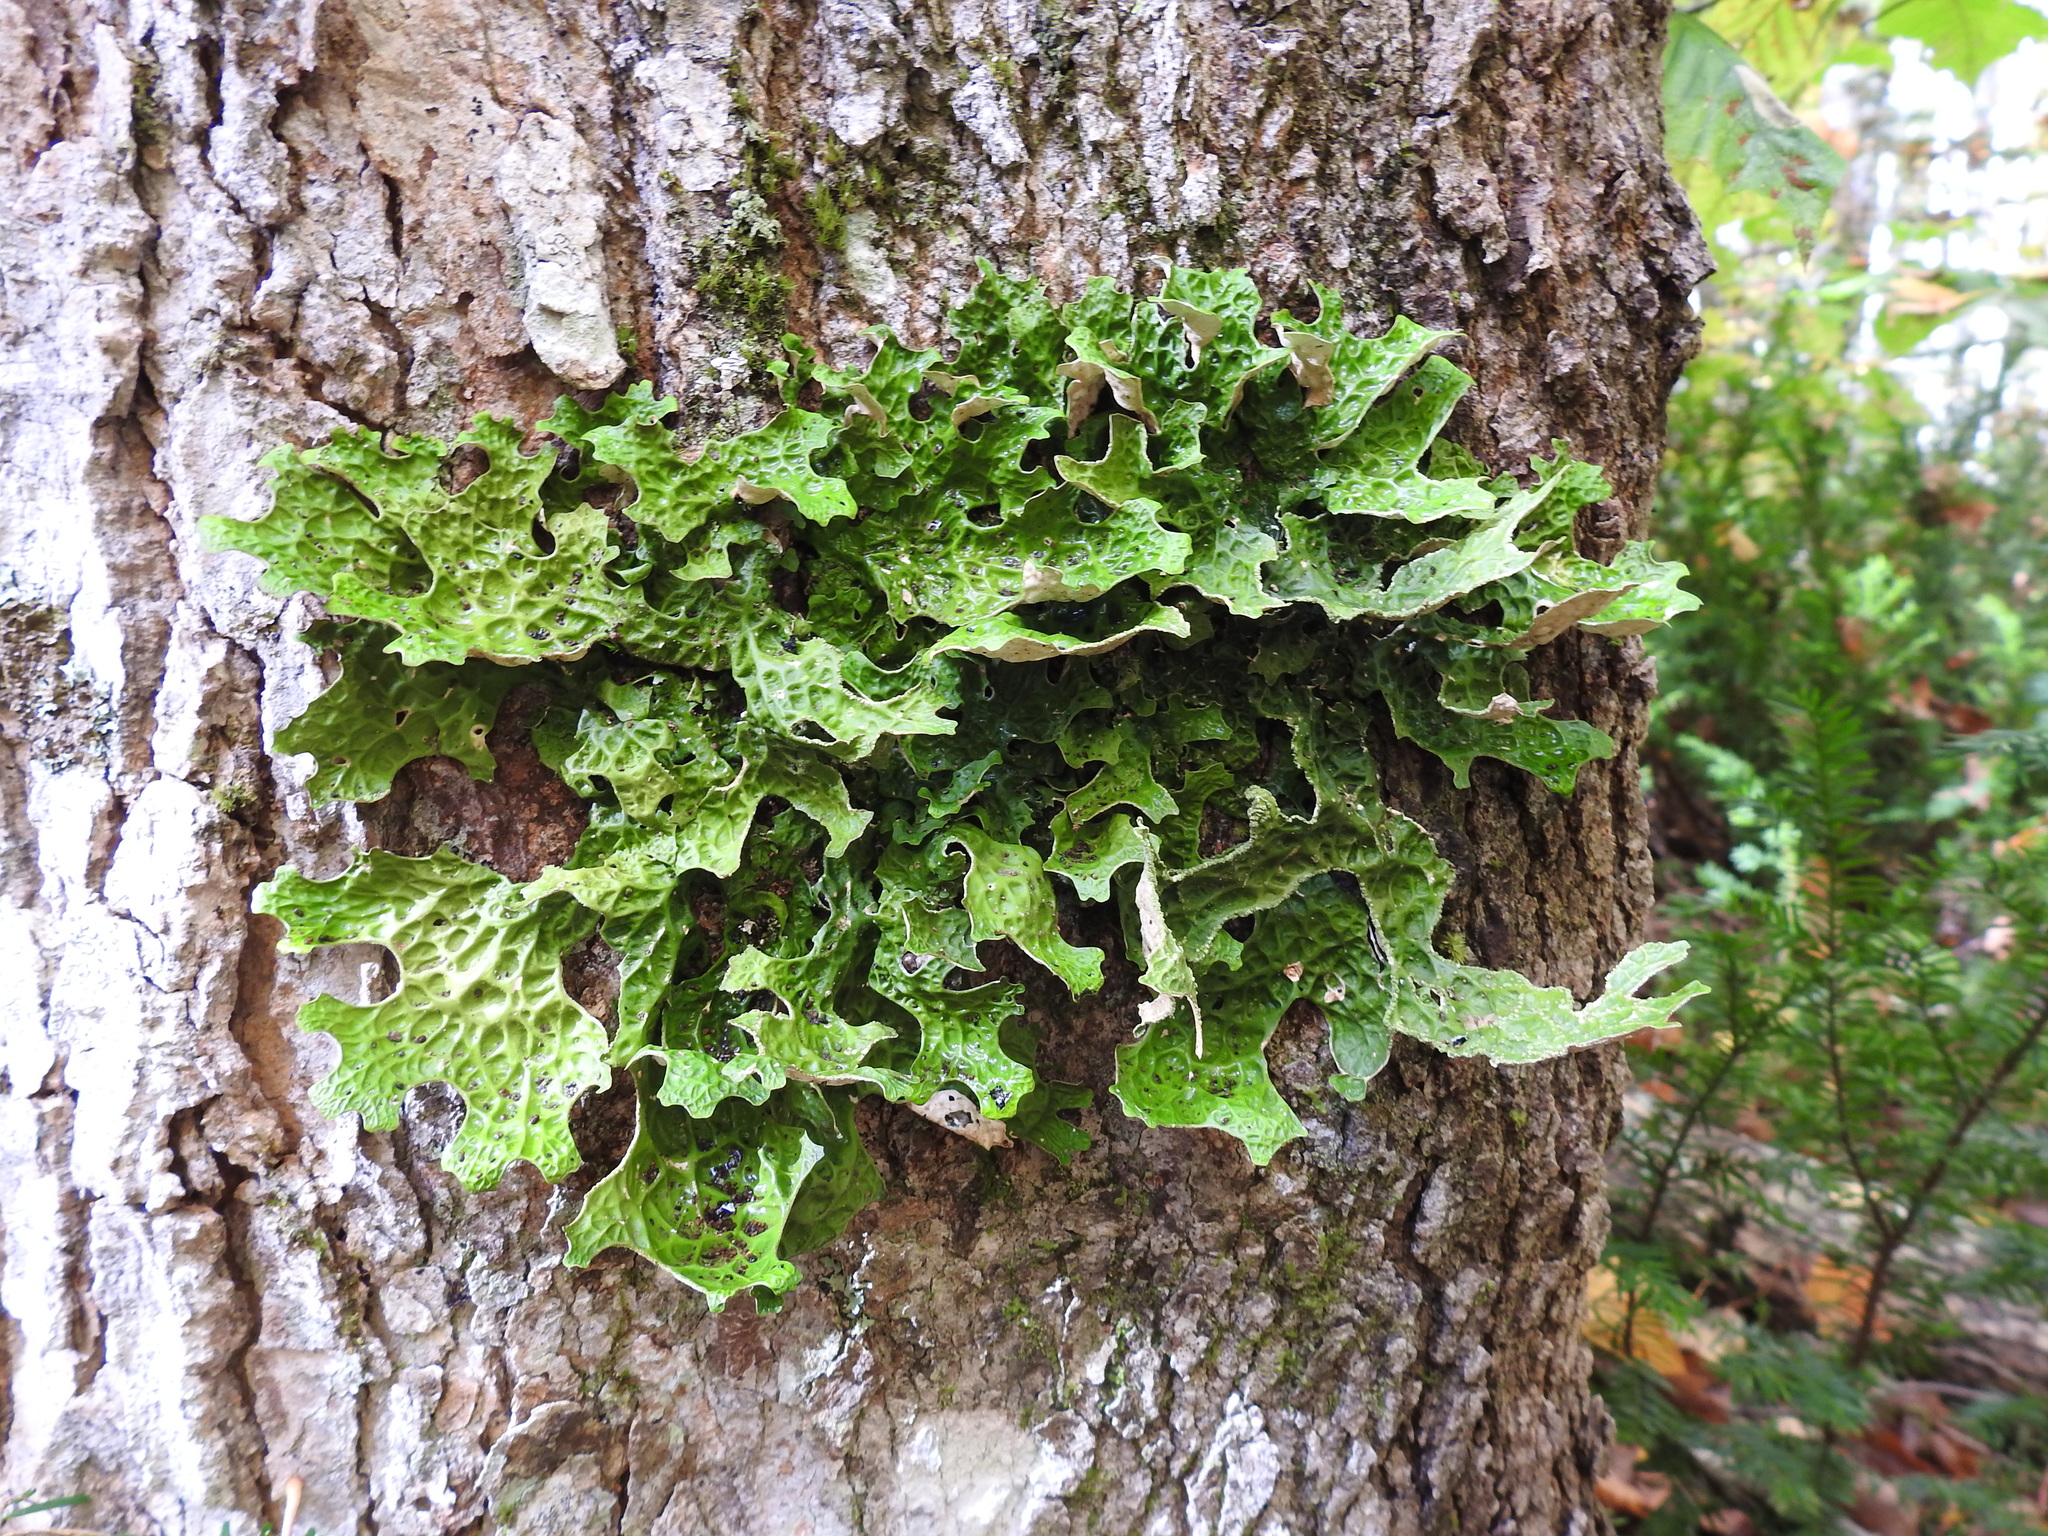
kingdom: Fungi
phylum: Ascomycota
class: Lecanoromycetes
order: Peltigerales
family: Lobariaceae
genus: Lobaria
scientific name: Lobaria pulmonaria
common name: Lungwort
